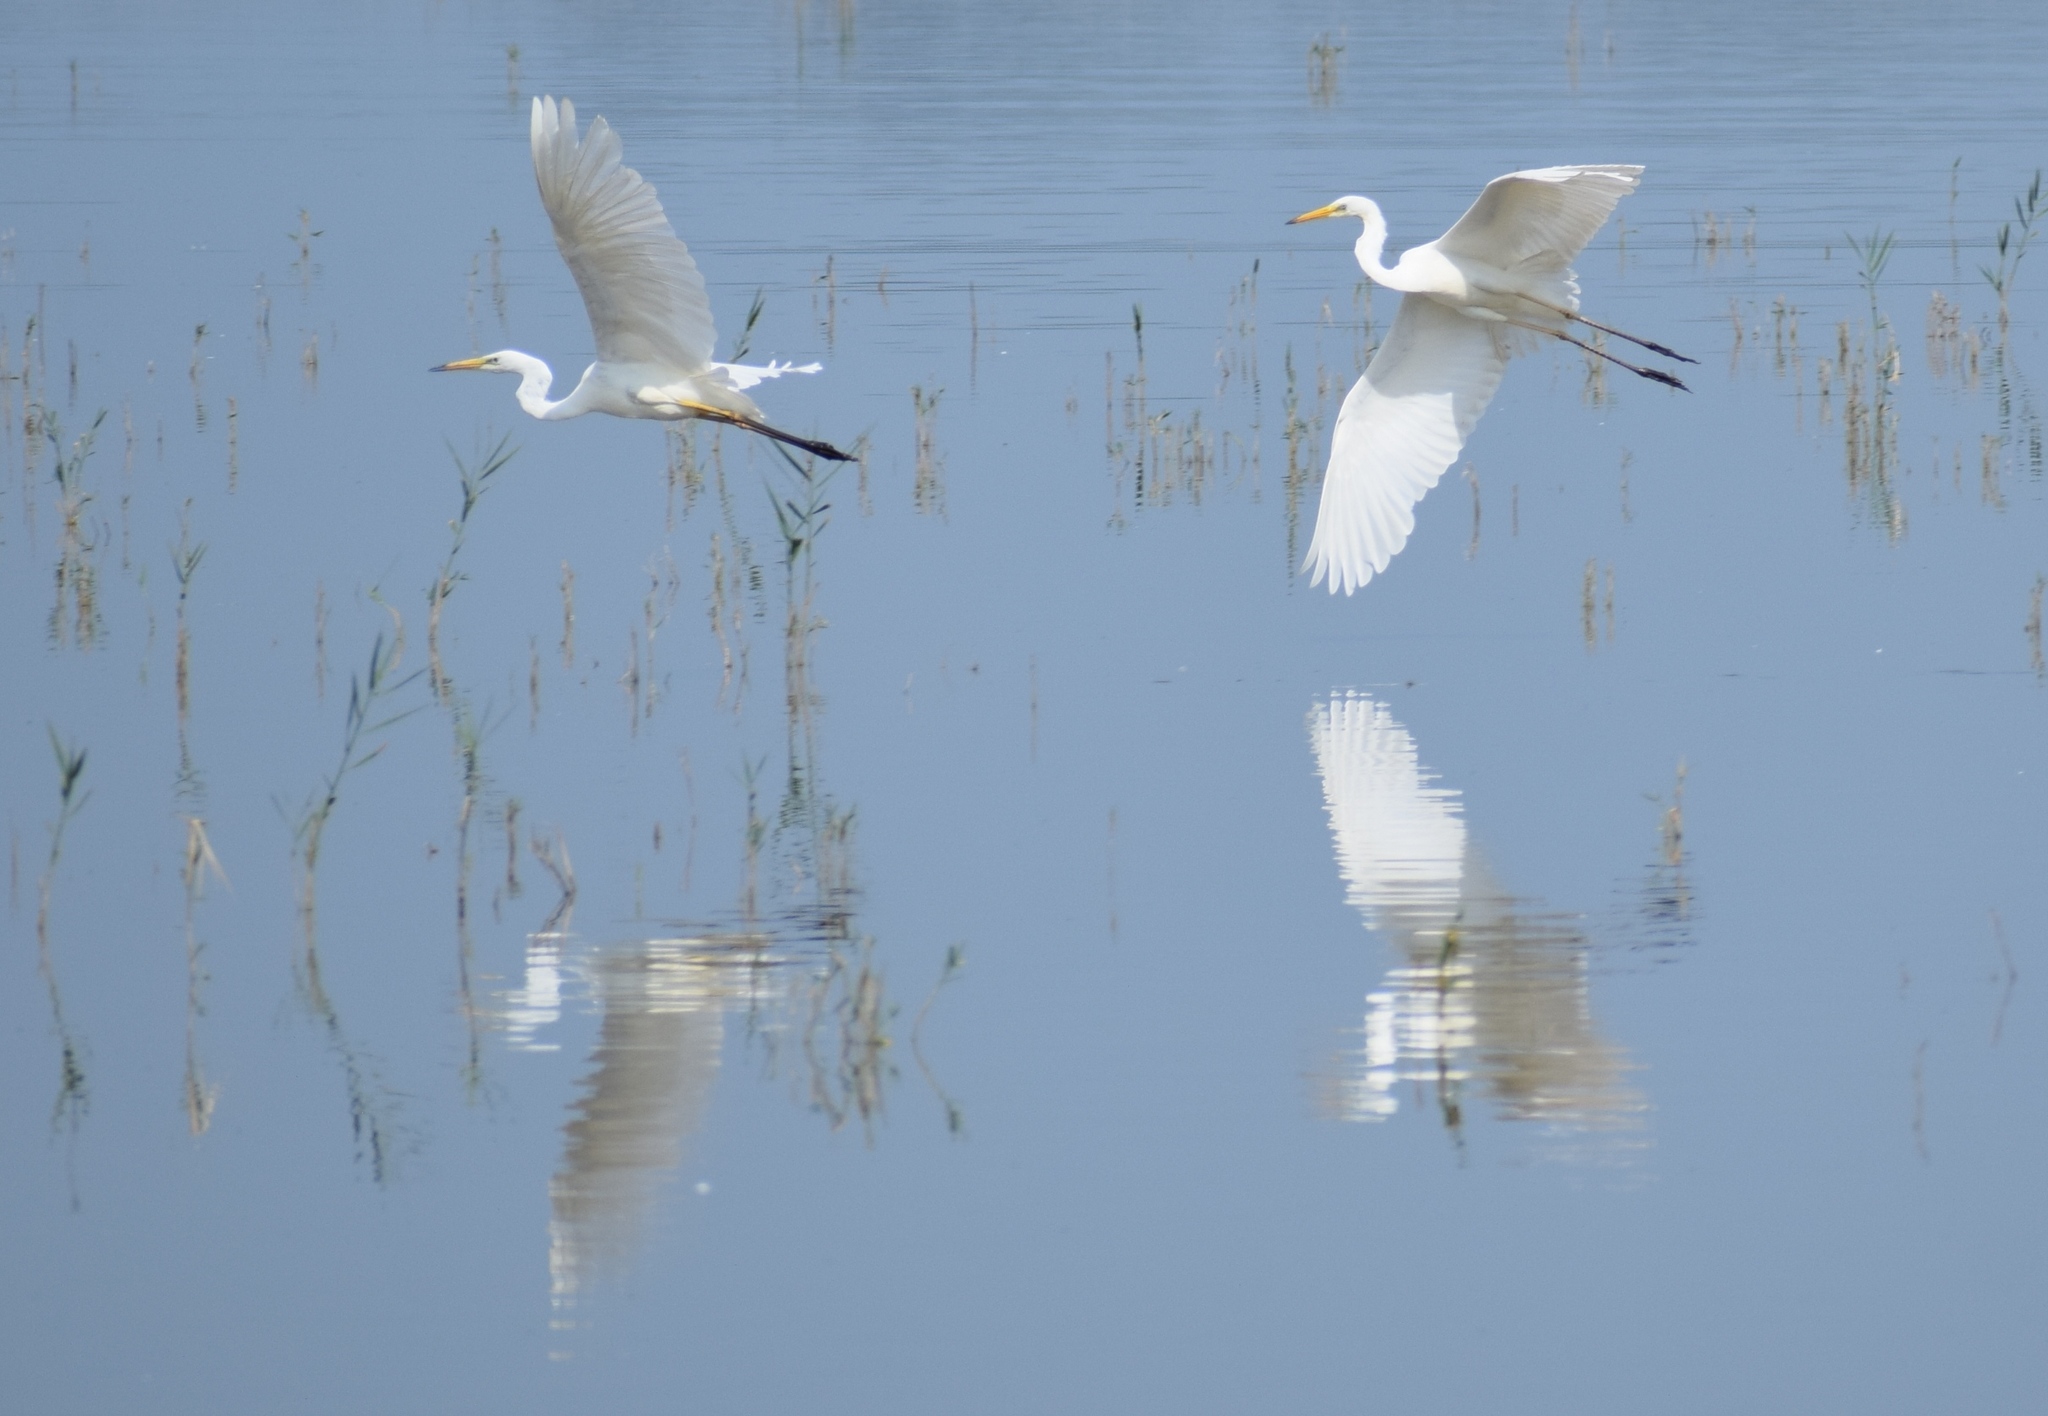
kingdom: Animalia
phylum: Chordata
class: Aves
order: Pelecaniformes
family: Ardeidae
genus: Ardea
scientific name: Ardea alba
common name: Great egret
